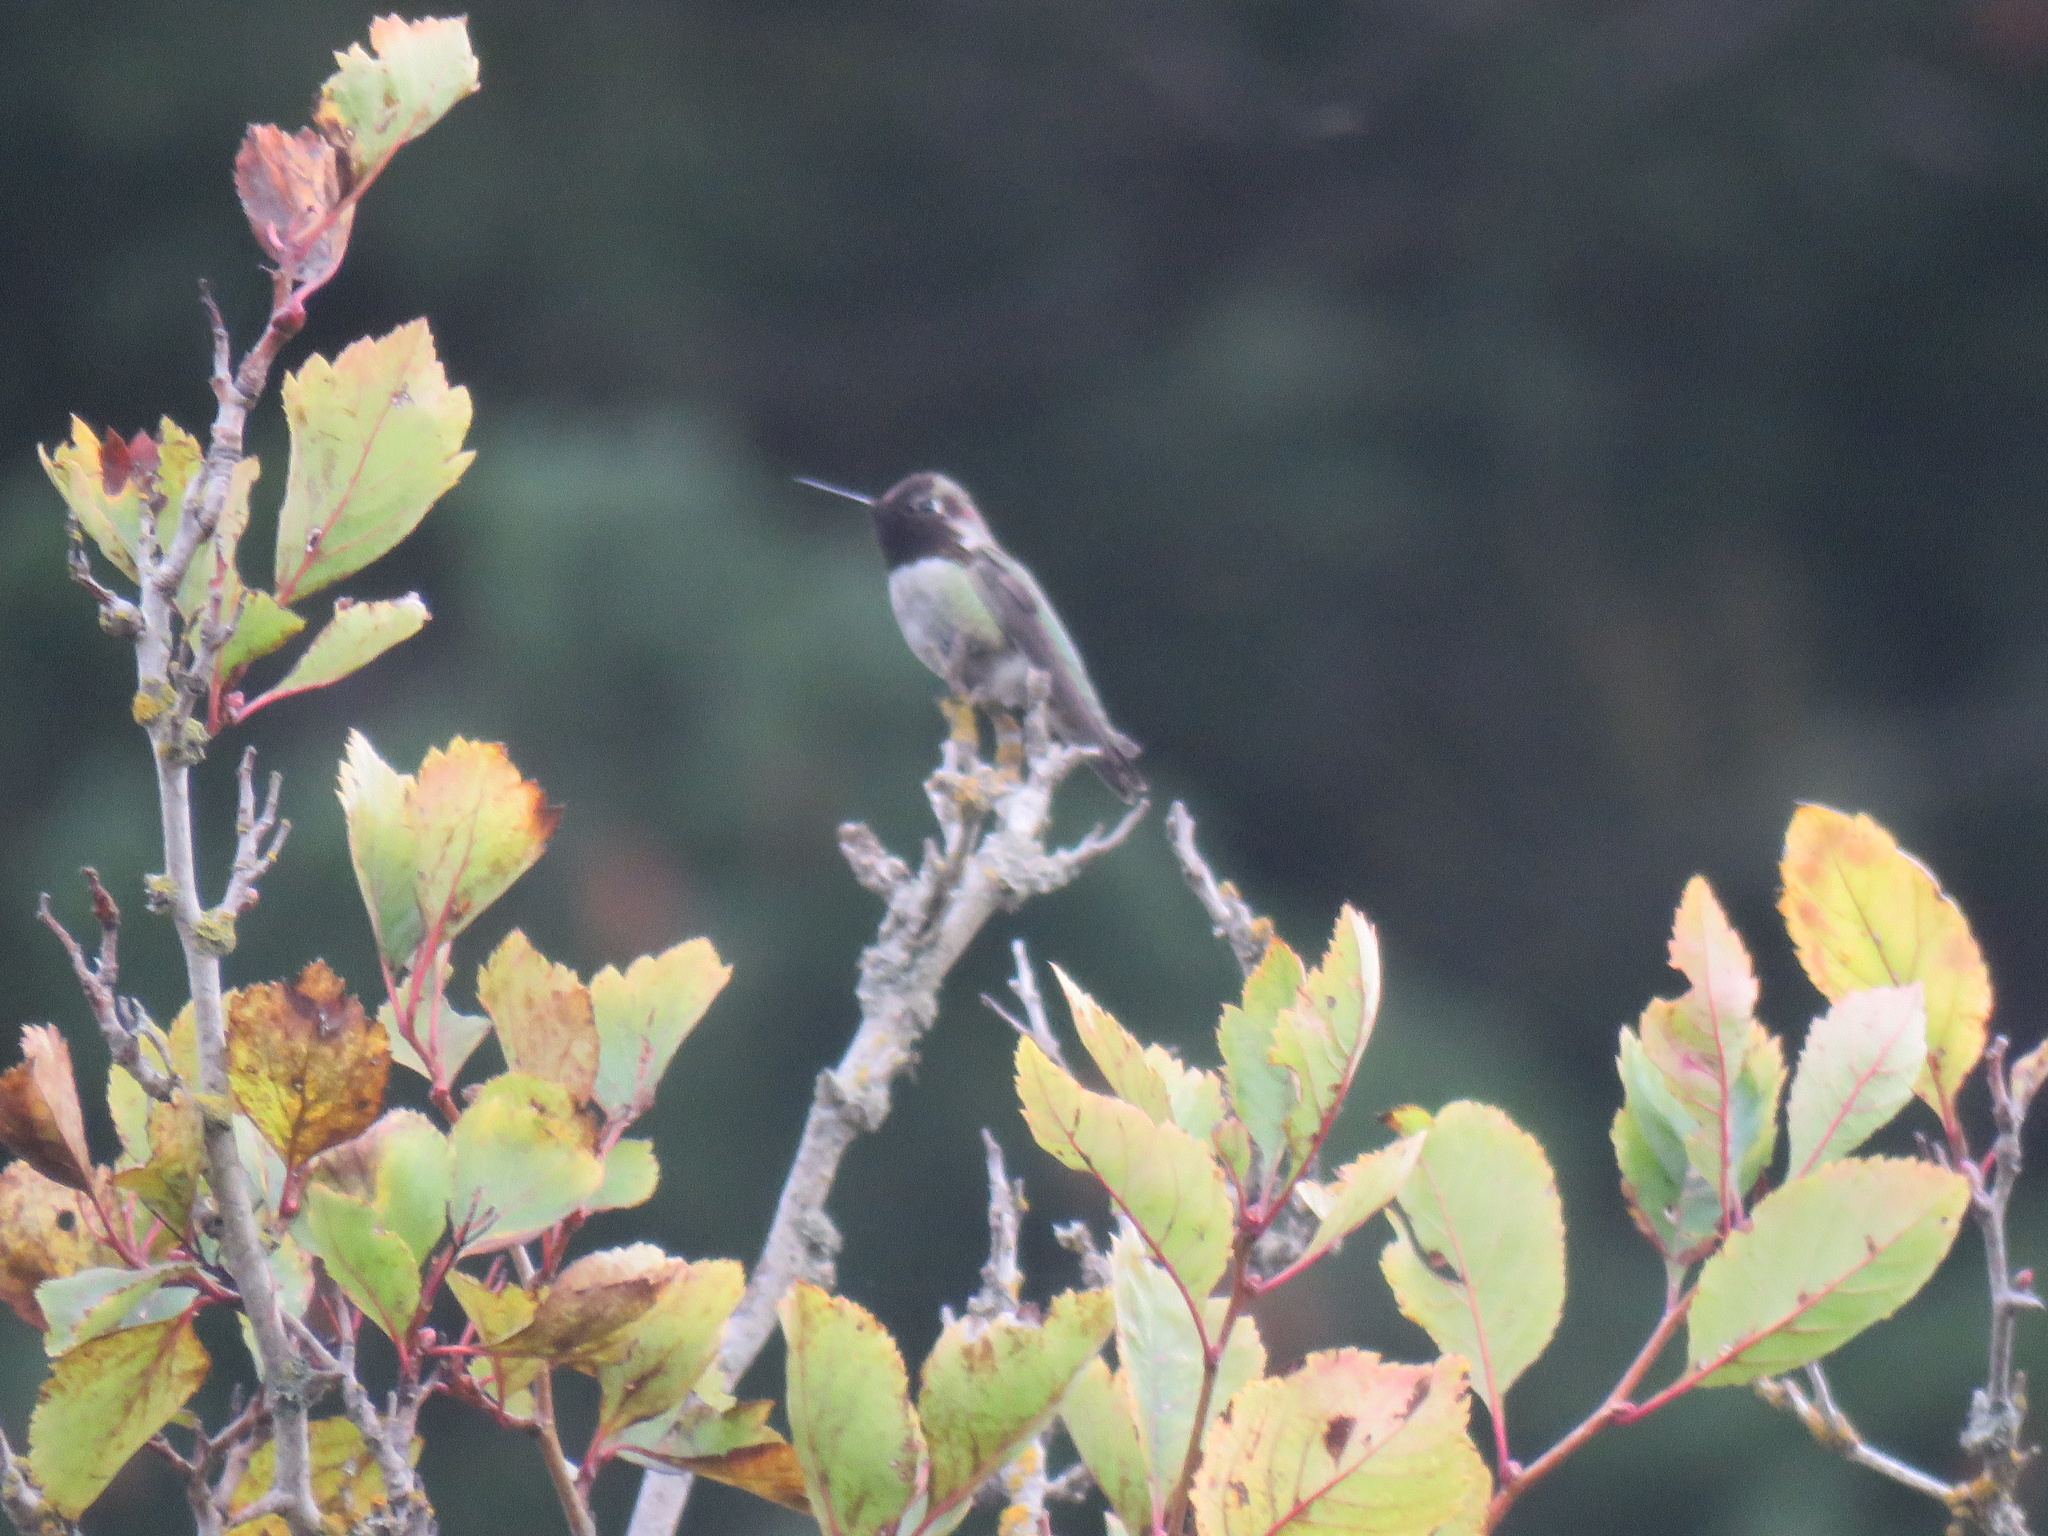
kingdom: Animalia
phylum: Chordata
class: Aves
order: Apodiformes
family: Trochilidae
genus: Calypte
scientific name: Calypte anna
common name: Anna's hummingbird
